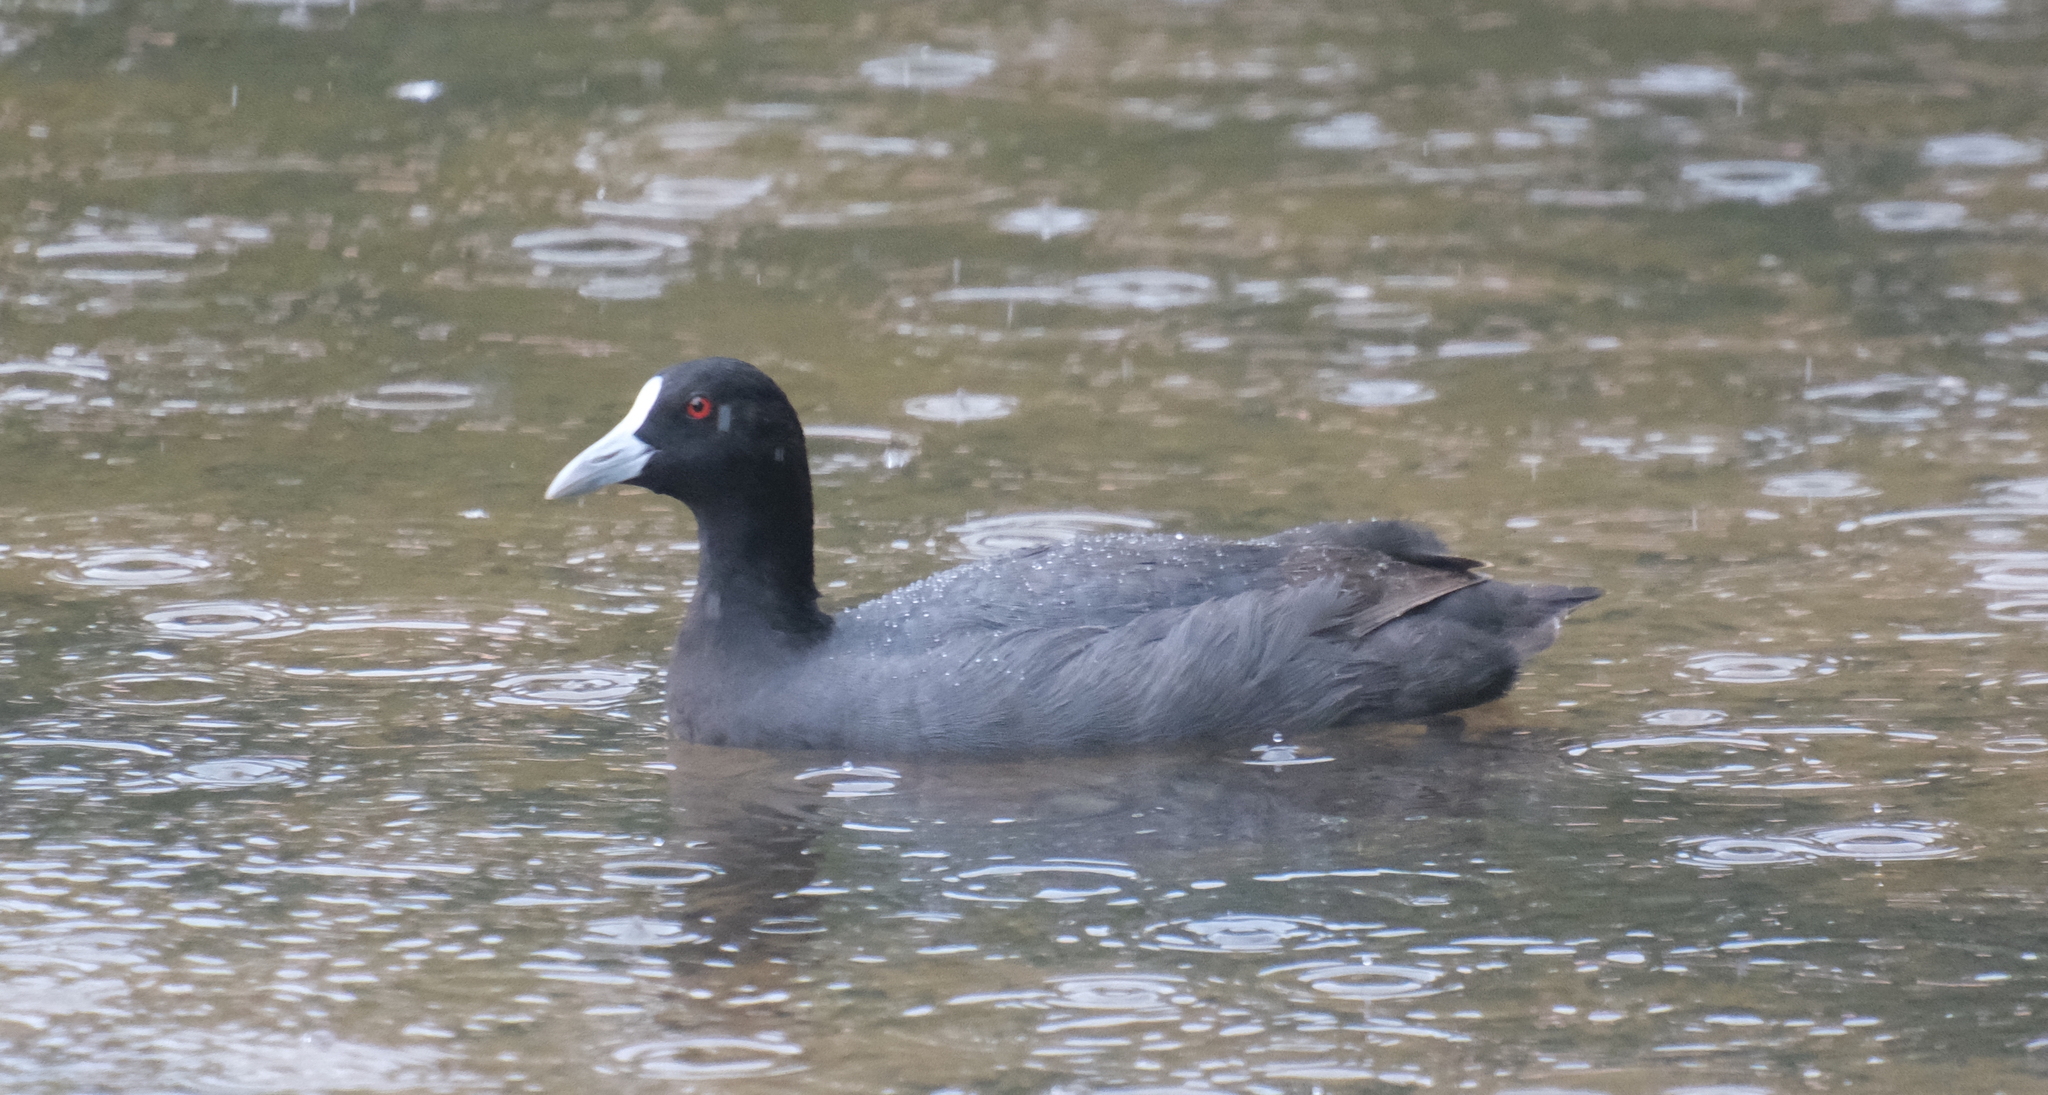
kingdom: Animalia
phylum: Chordata
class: Aves
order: Gruiformes
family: Rallidae
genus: Fulica
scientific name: Fulica atra
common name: Eurasian coot
